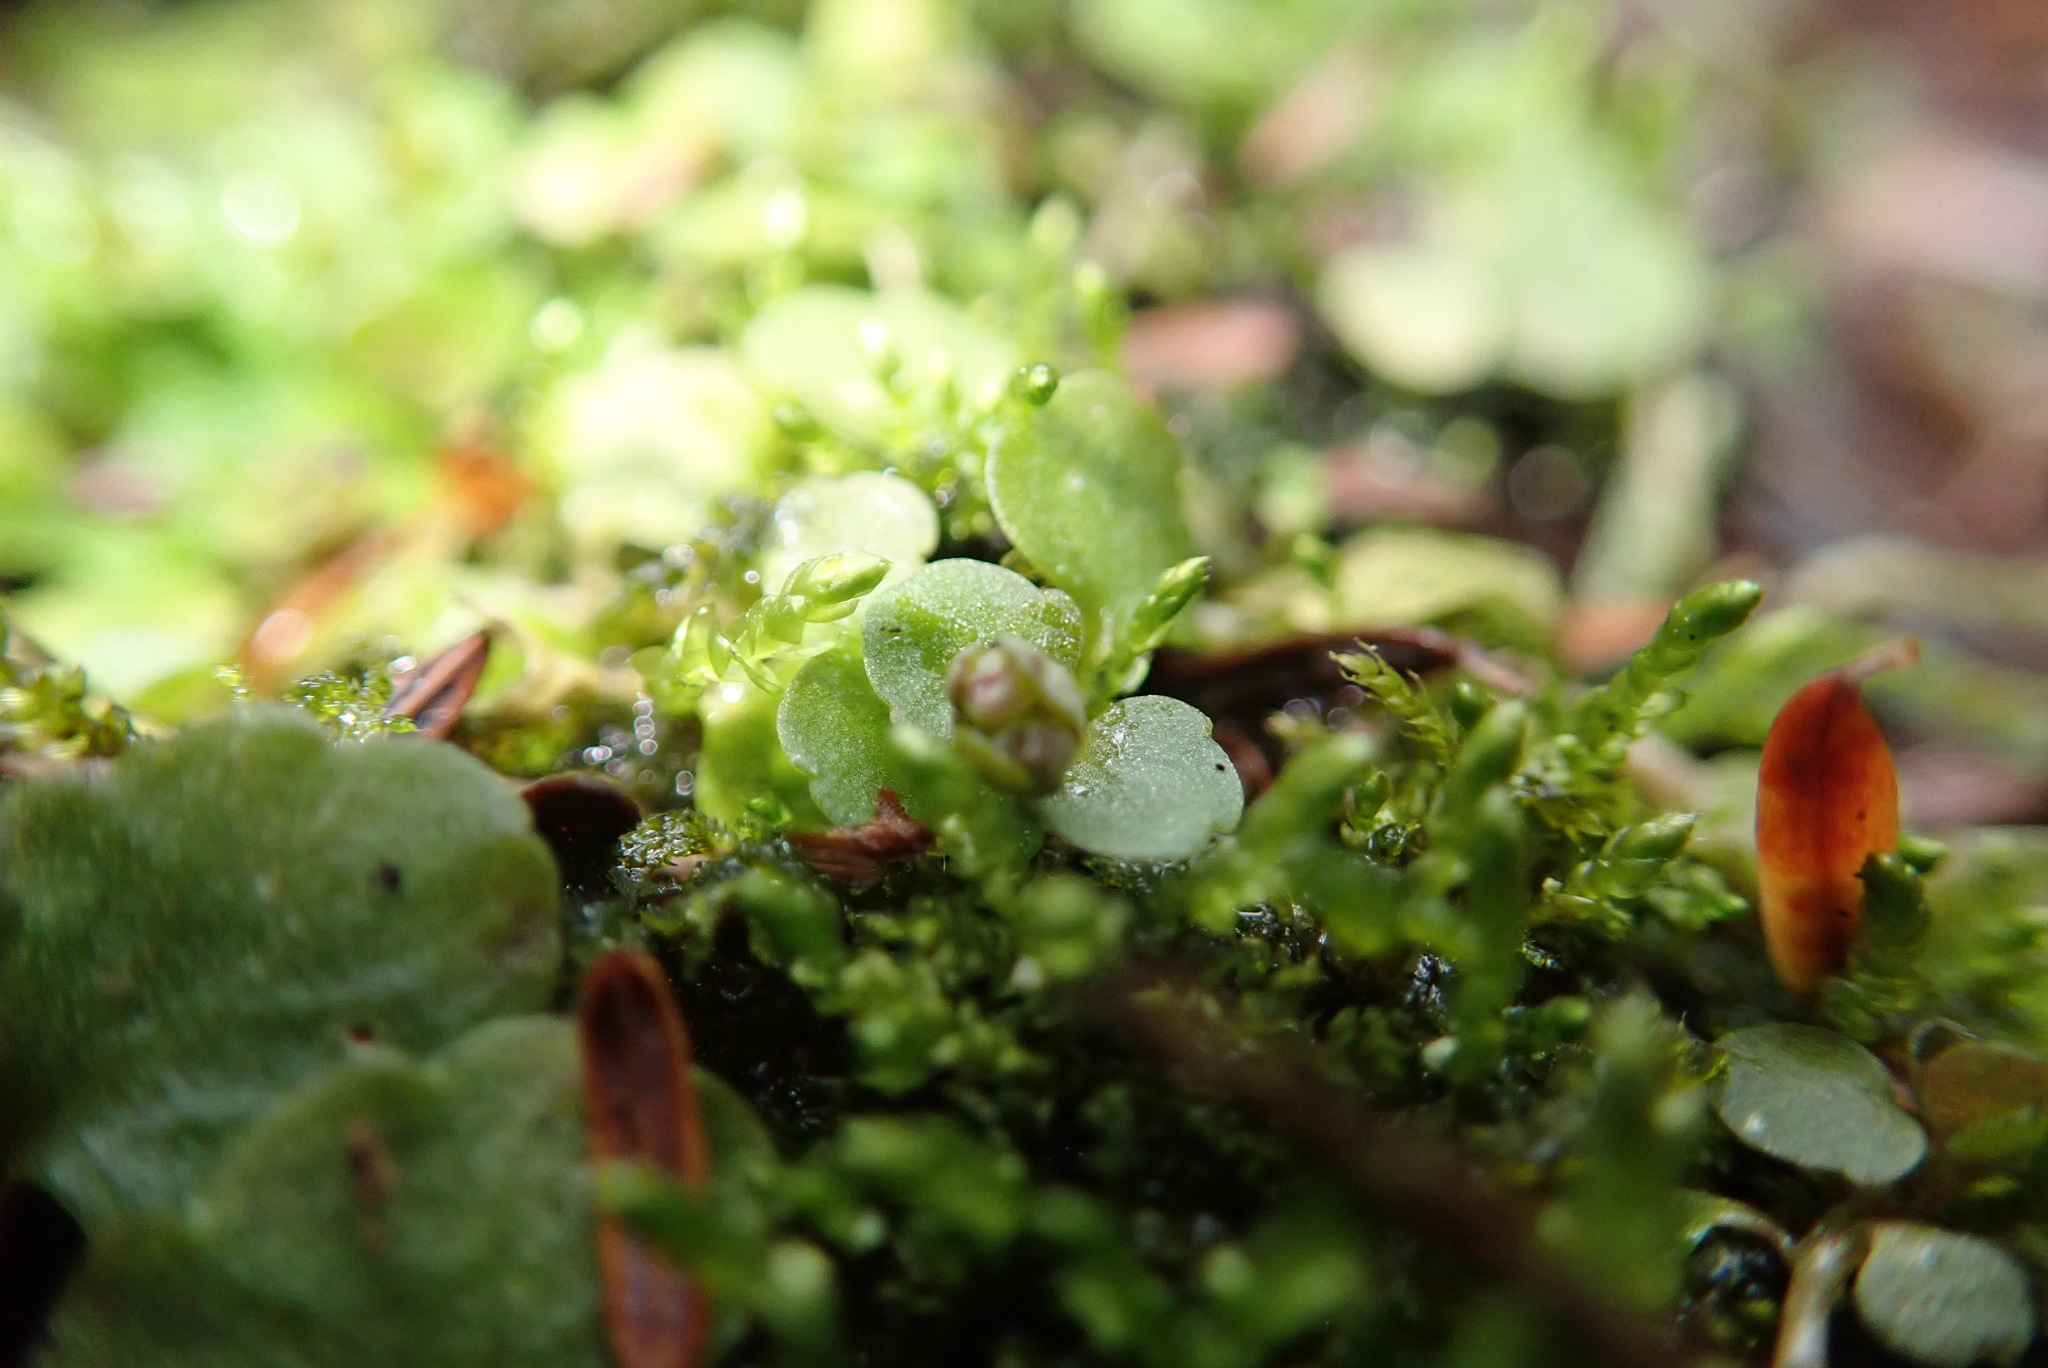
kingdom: Plantae
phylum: Tracheophyta
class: Magnoliopsida
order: Saxifragales
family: Saxifragaceae
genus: Chrysosplenium
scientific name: Chrysosplenium americanum
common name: American golden-saxifrage
